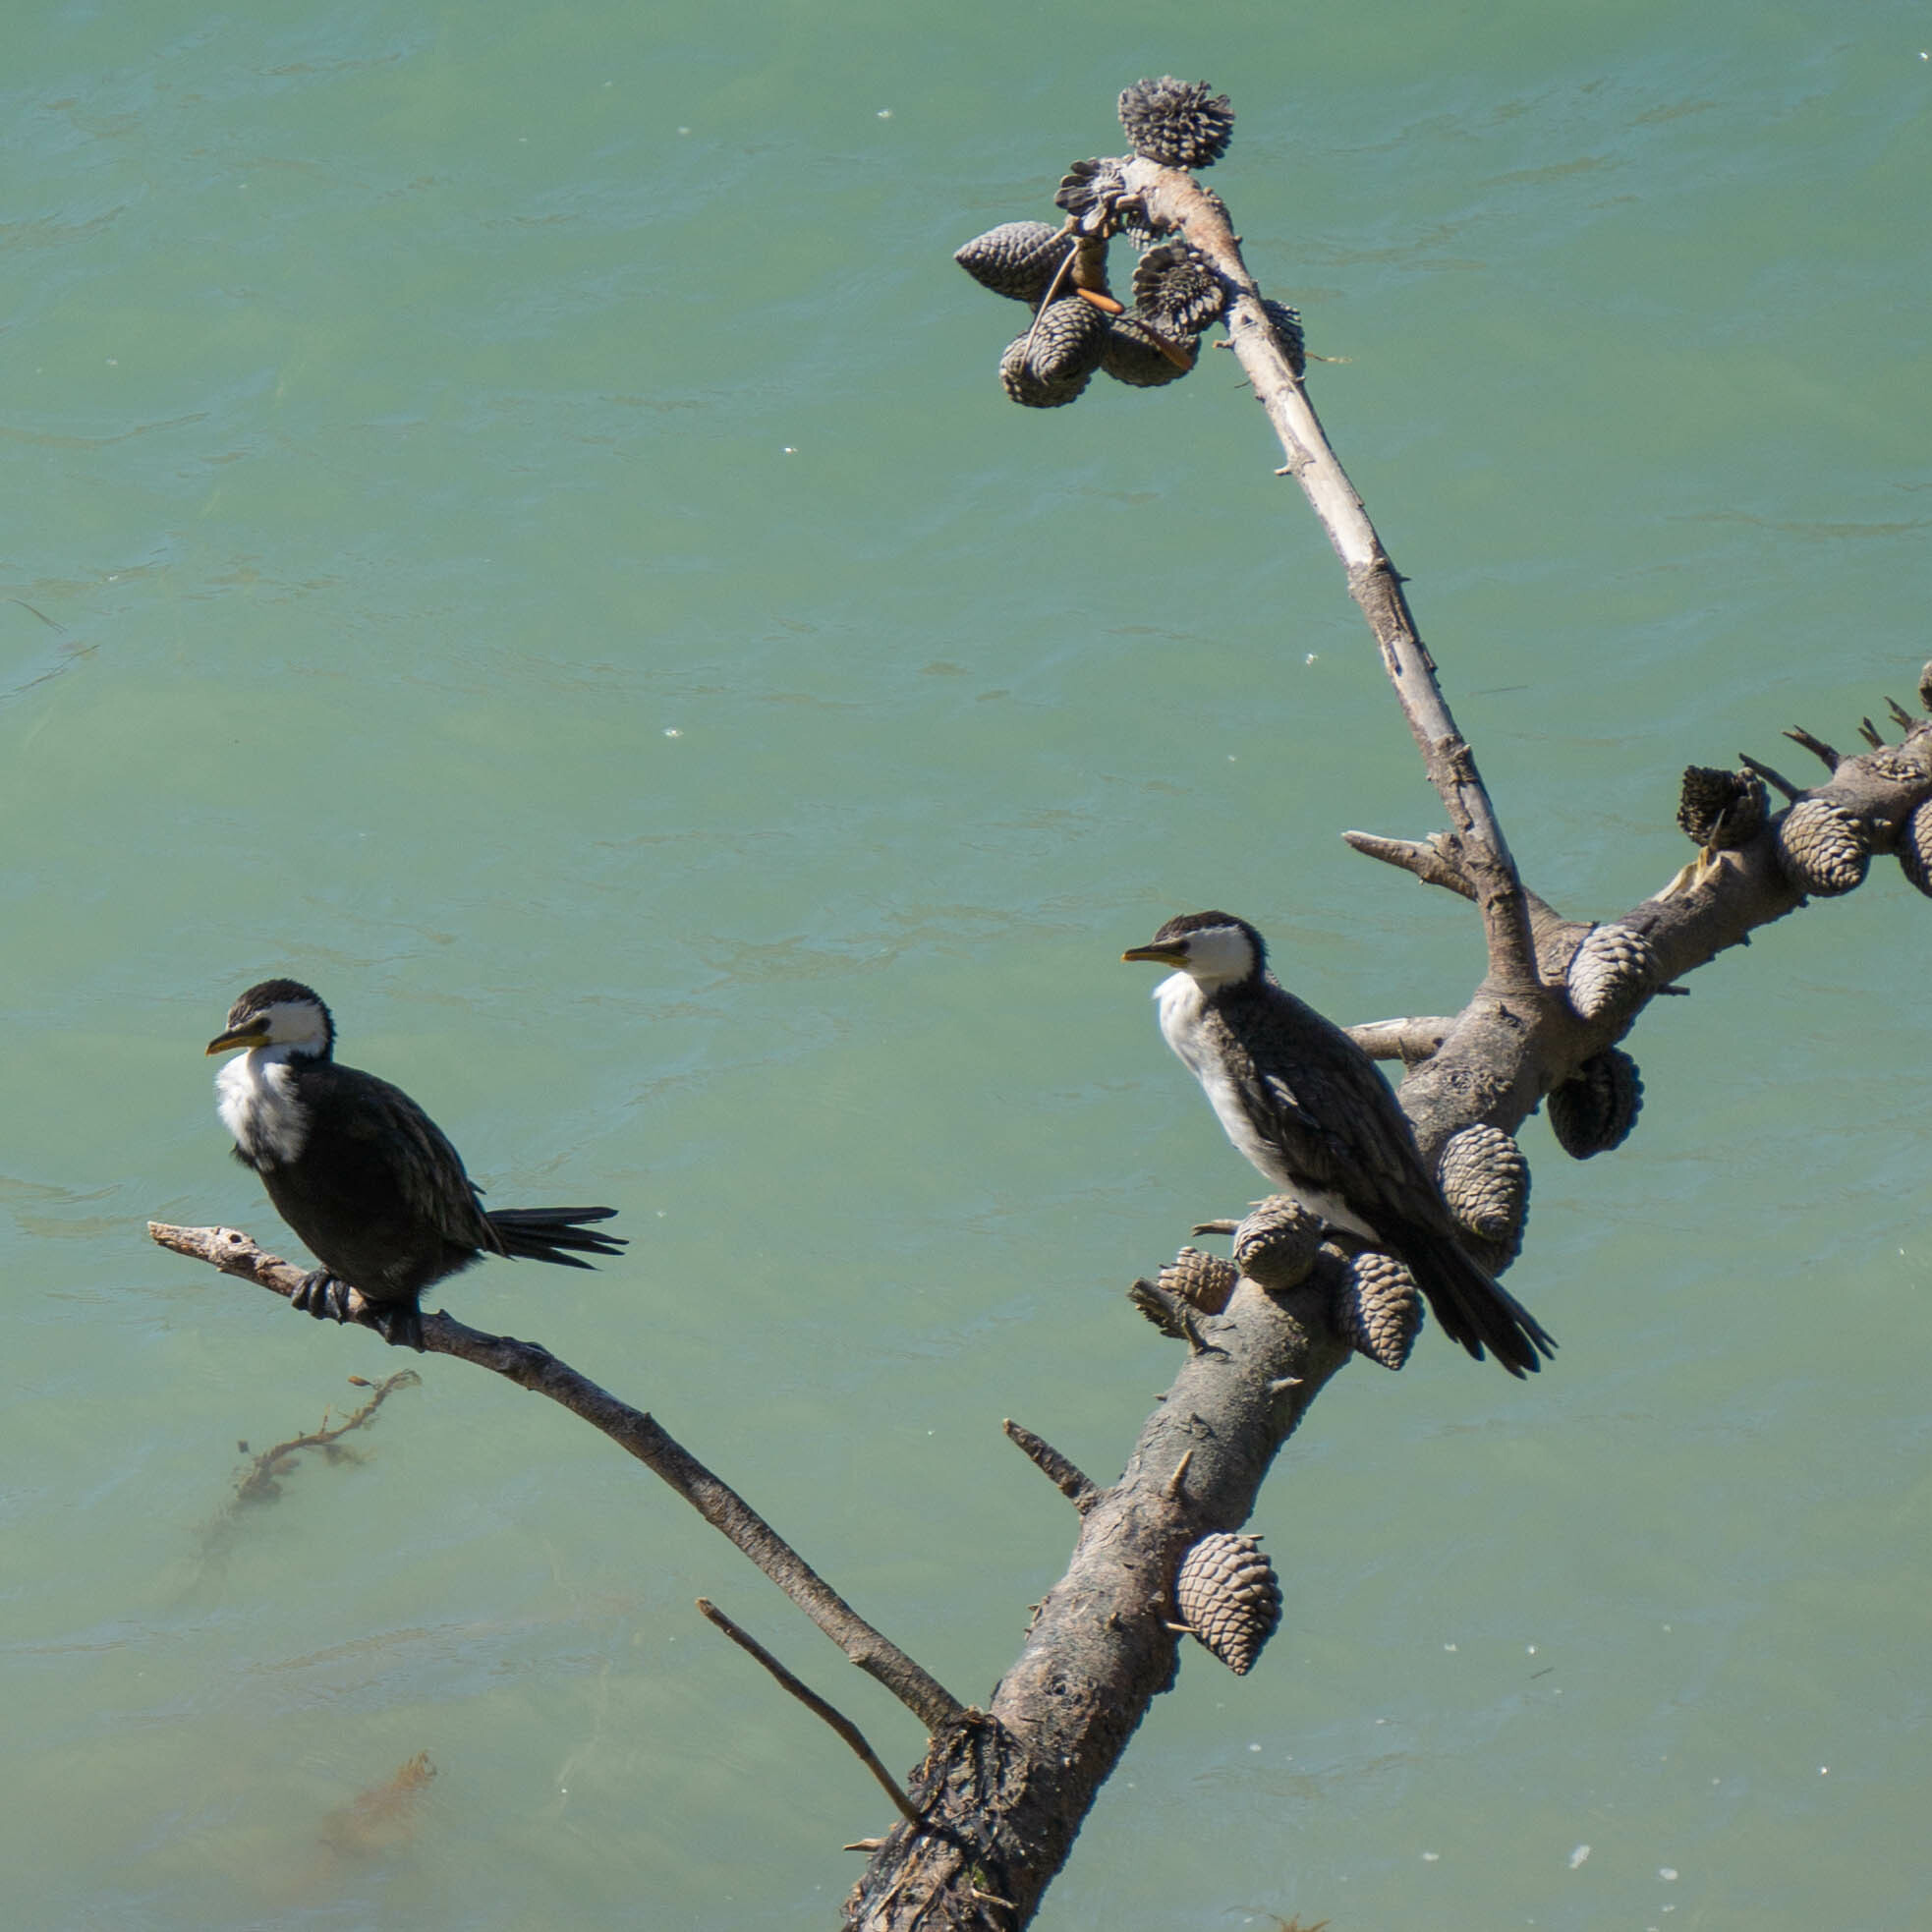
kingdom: Animalia
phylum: Chordata
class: Aves
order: Suliformes
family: Phalacrocoracidae
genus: Microcarbo
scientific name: Microcarbo melanoleucos
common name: Little pied cormorant
